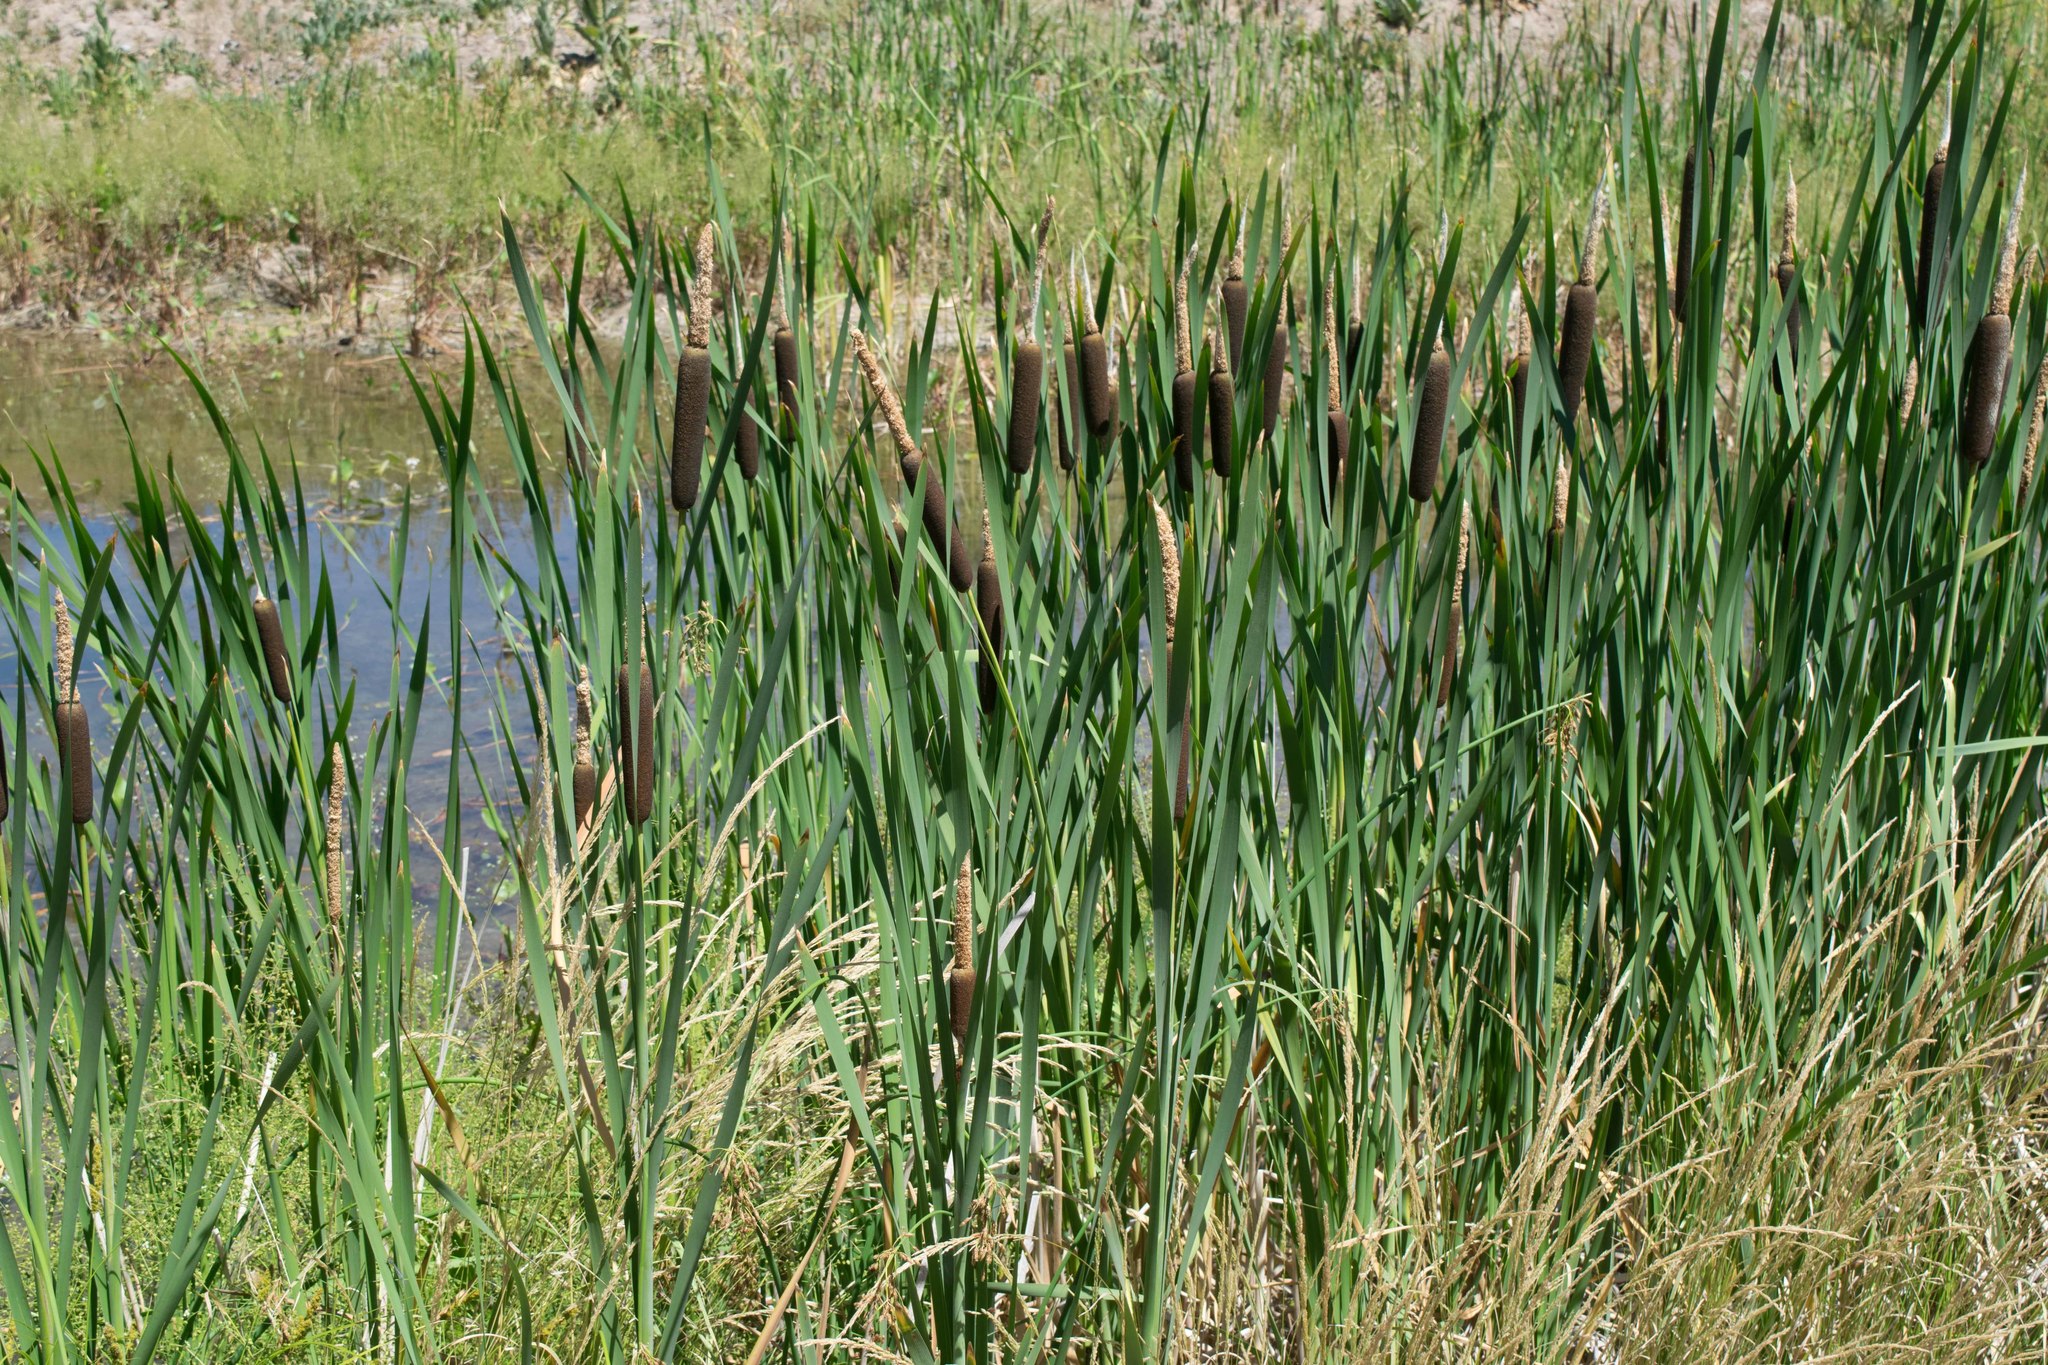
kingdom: Plantae
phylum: Tracheophyta
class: Liliopsida
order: Poales
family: Typhaceae
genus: Typha
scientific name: Typha latifolia
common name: Broadleaf cattail
